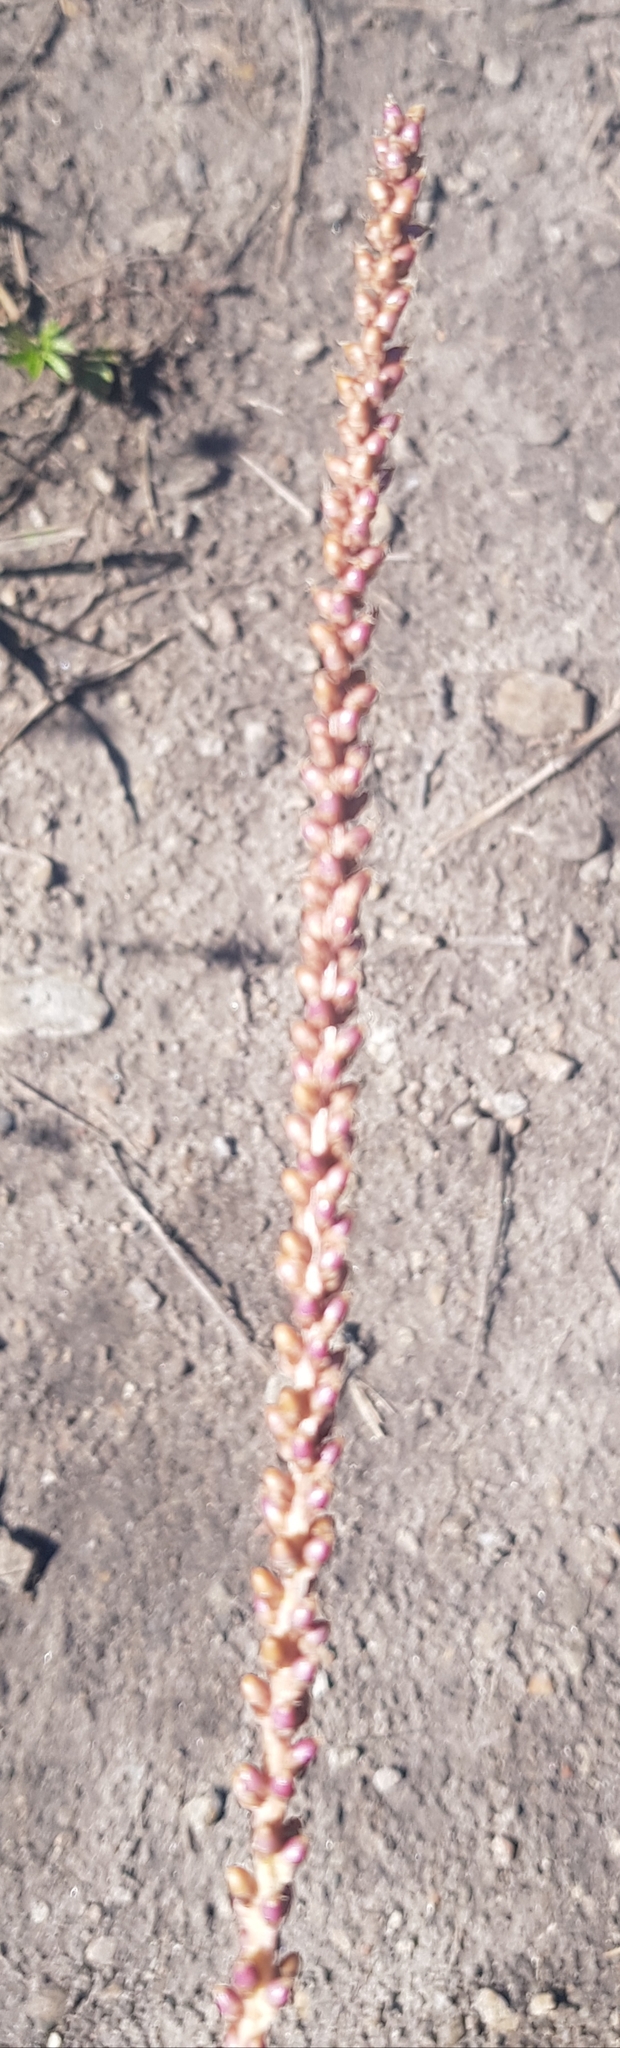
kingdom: Plantae
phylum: Tracheophyta
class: Magnoliopsida
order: Lamiales
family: Plantaginaceae
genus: Plantago
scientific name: Plantago major
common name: Common plantain
